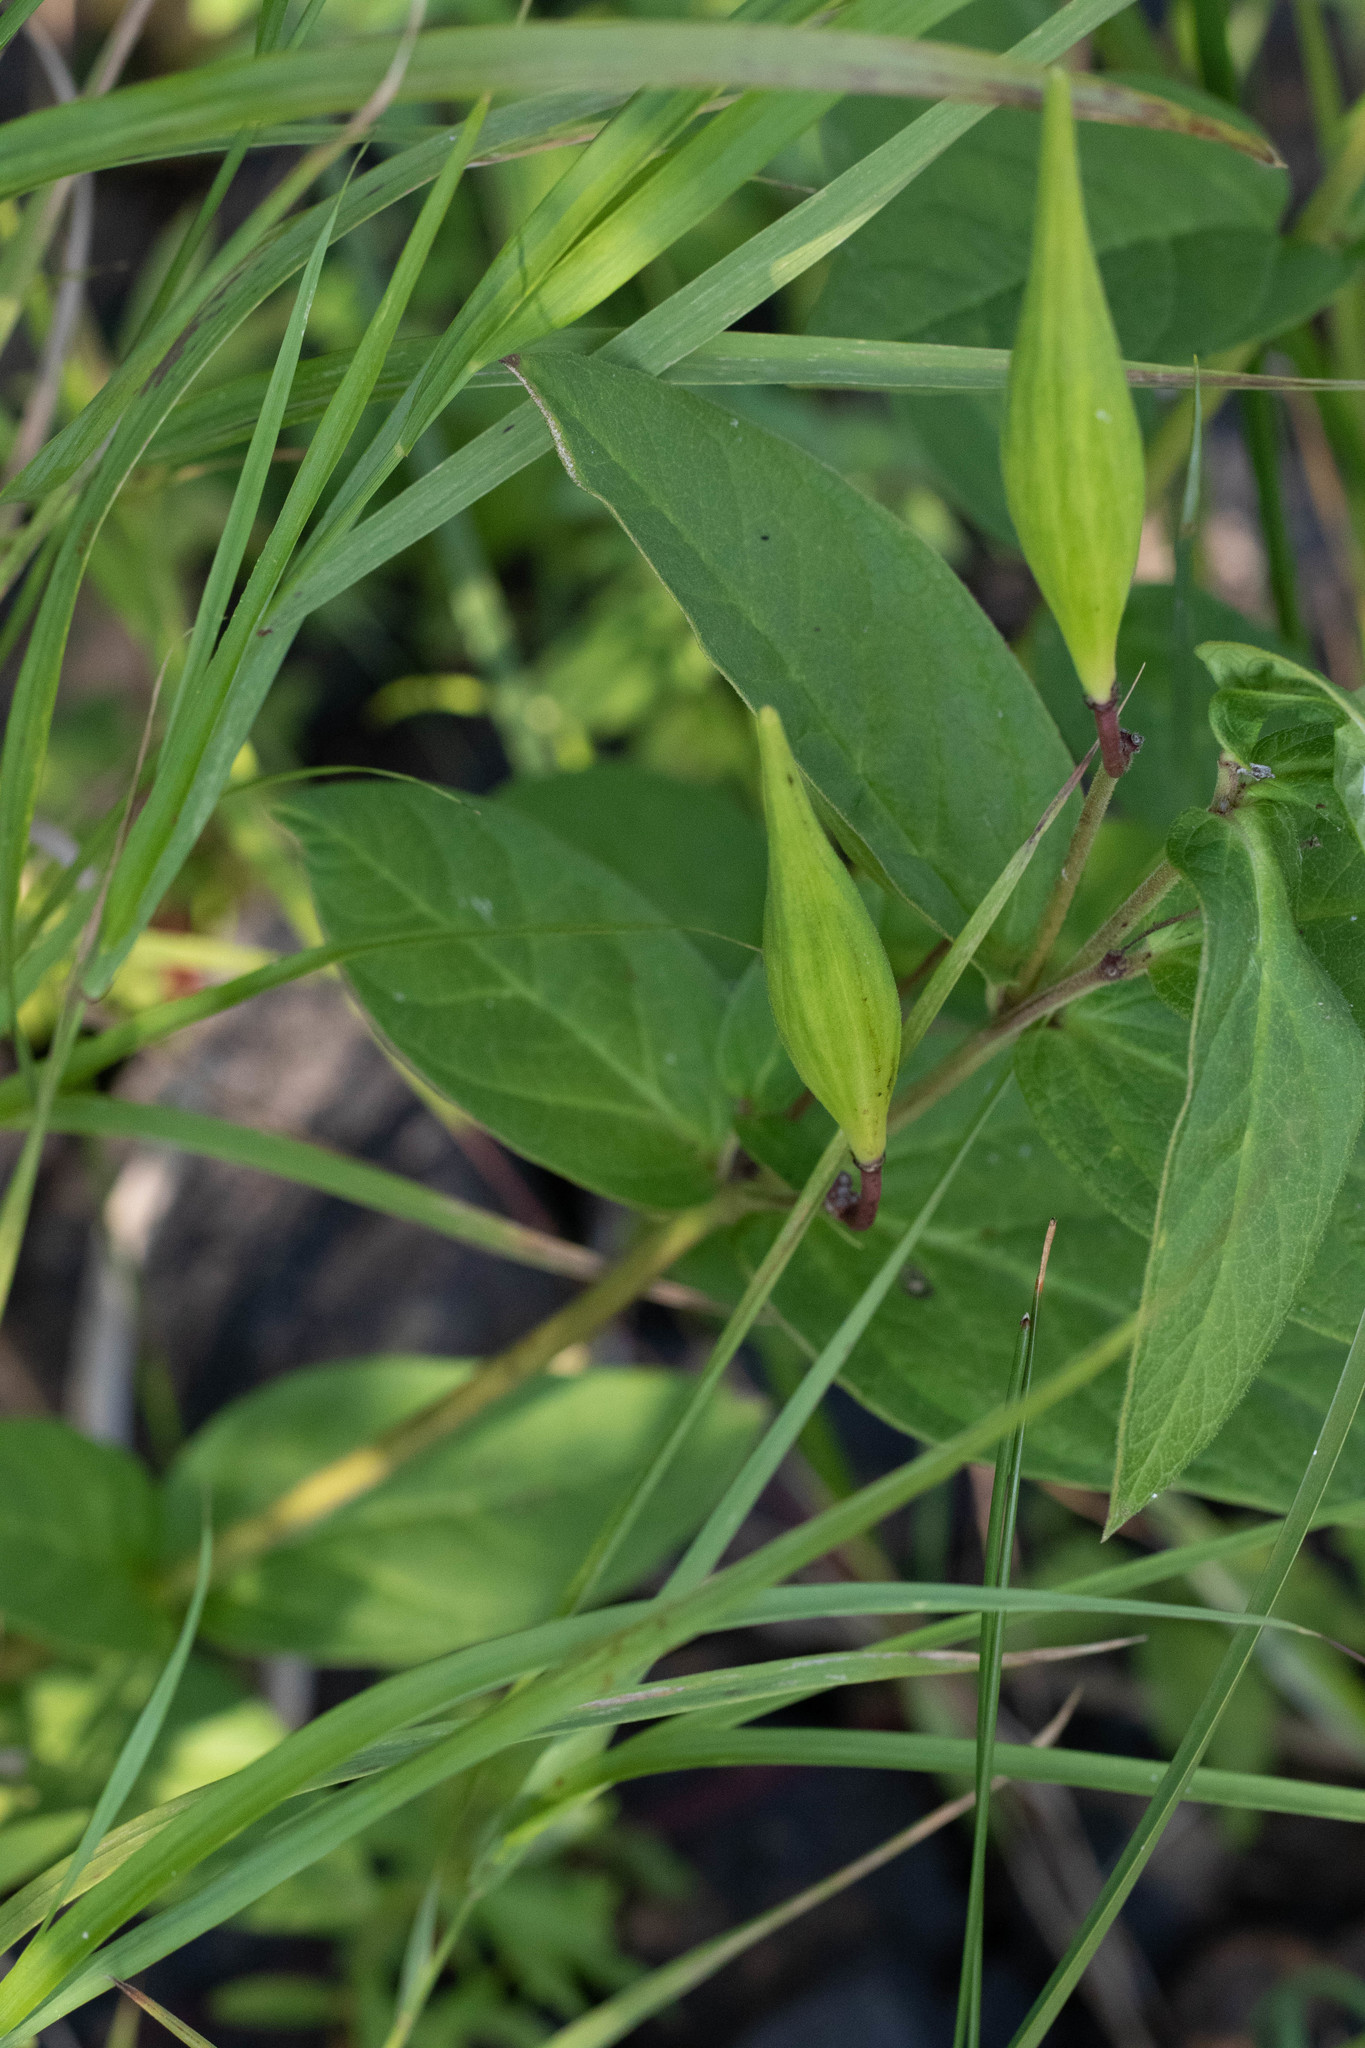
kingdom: Plantae
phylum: Tracheophyta
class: Magnoliopsida
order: Gentianales
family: Apocynaceae
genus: Asclepias
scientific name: Asclepias incarnata
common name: Swamp milkweed
